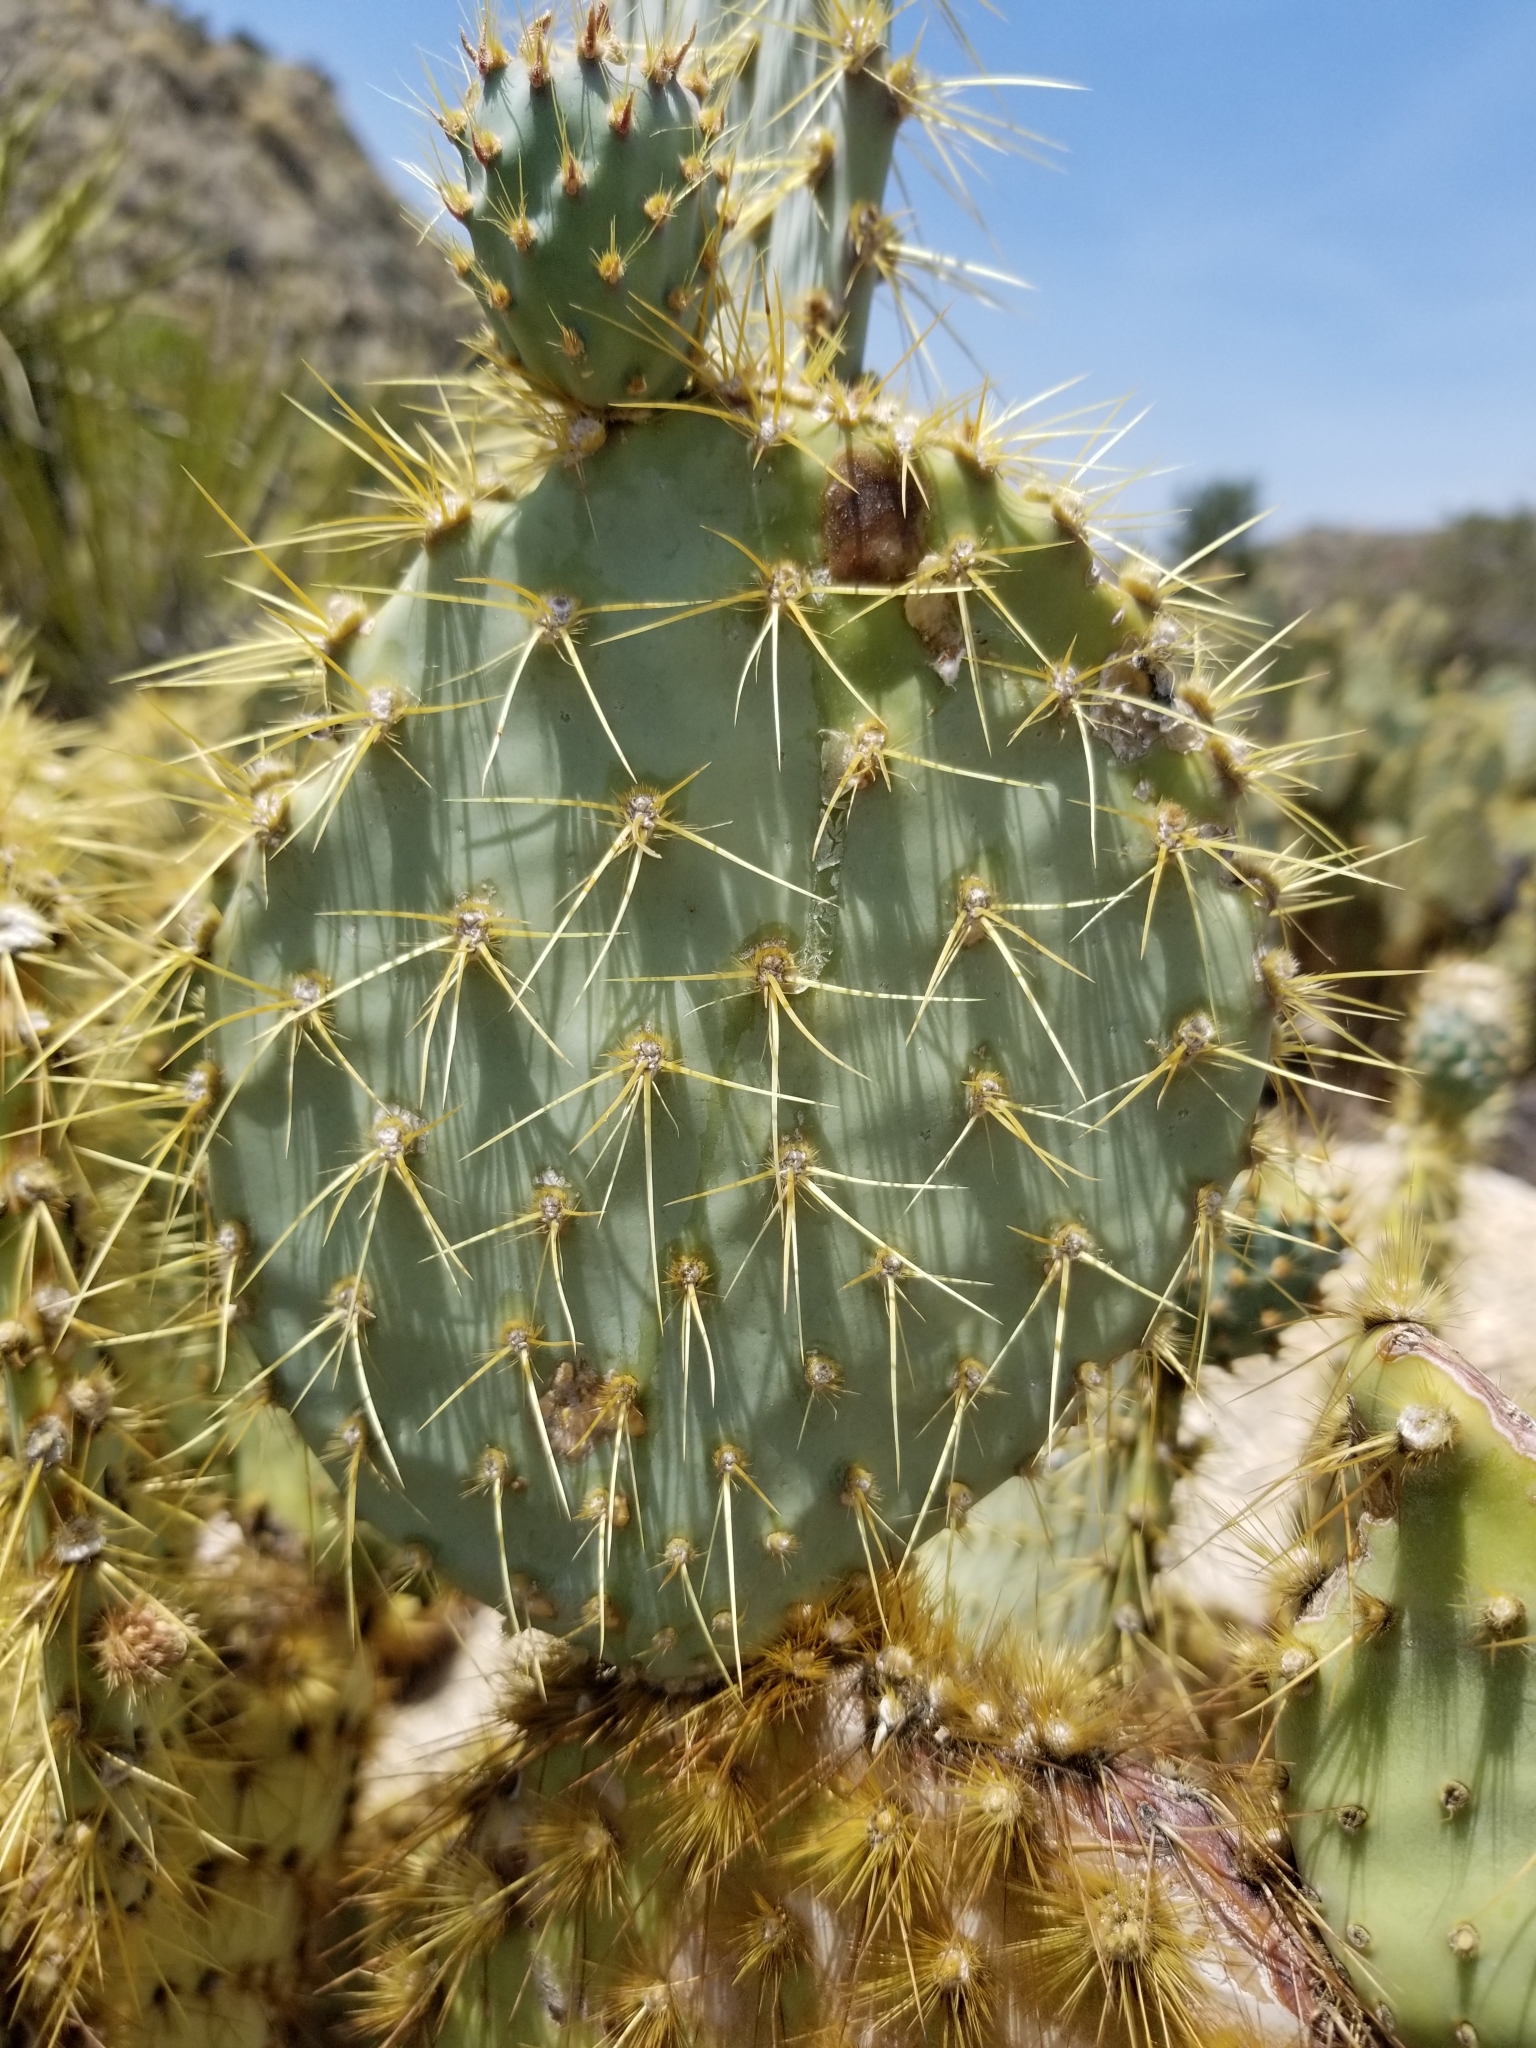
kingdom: Plantae
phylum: Tracheophyta
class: Magnoliopsida
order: Caryophyllales
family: Cactaceae
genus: Opuntia
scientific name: Opuntia chlorotica
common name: Dollar-joint prickly-pear
